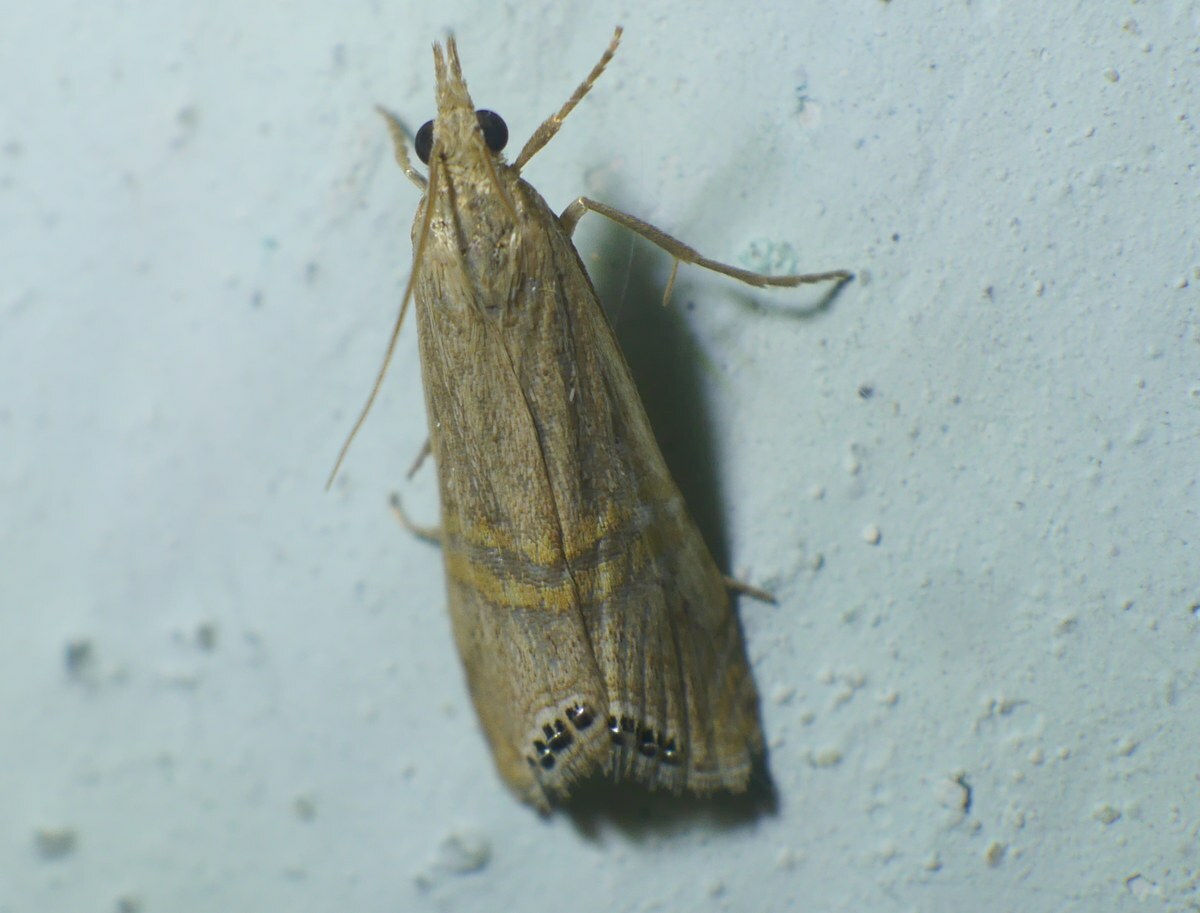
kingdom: Animalia
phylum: Arthropoda
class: Insecta
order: Lepidoptera
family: Crambidae
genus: Euchromius
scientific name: Euchromius ocellea
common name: Necklace veneer moth
